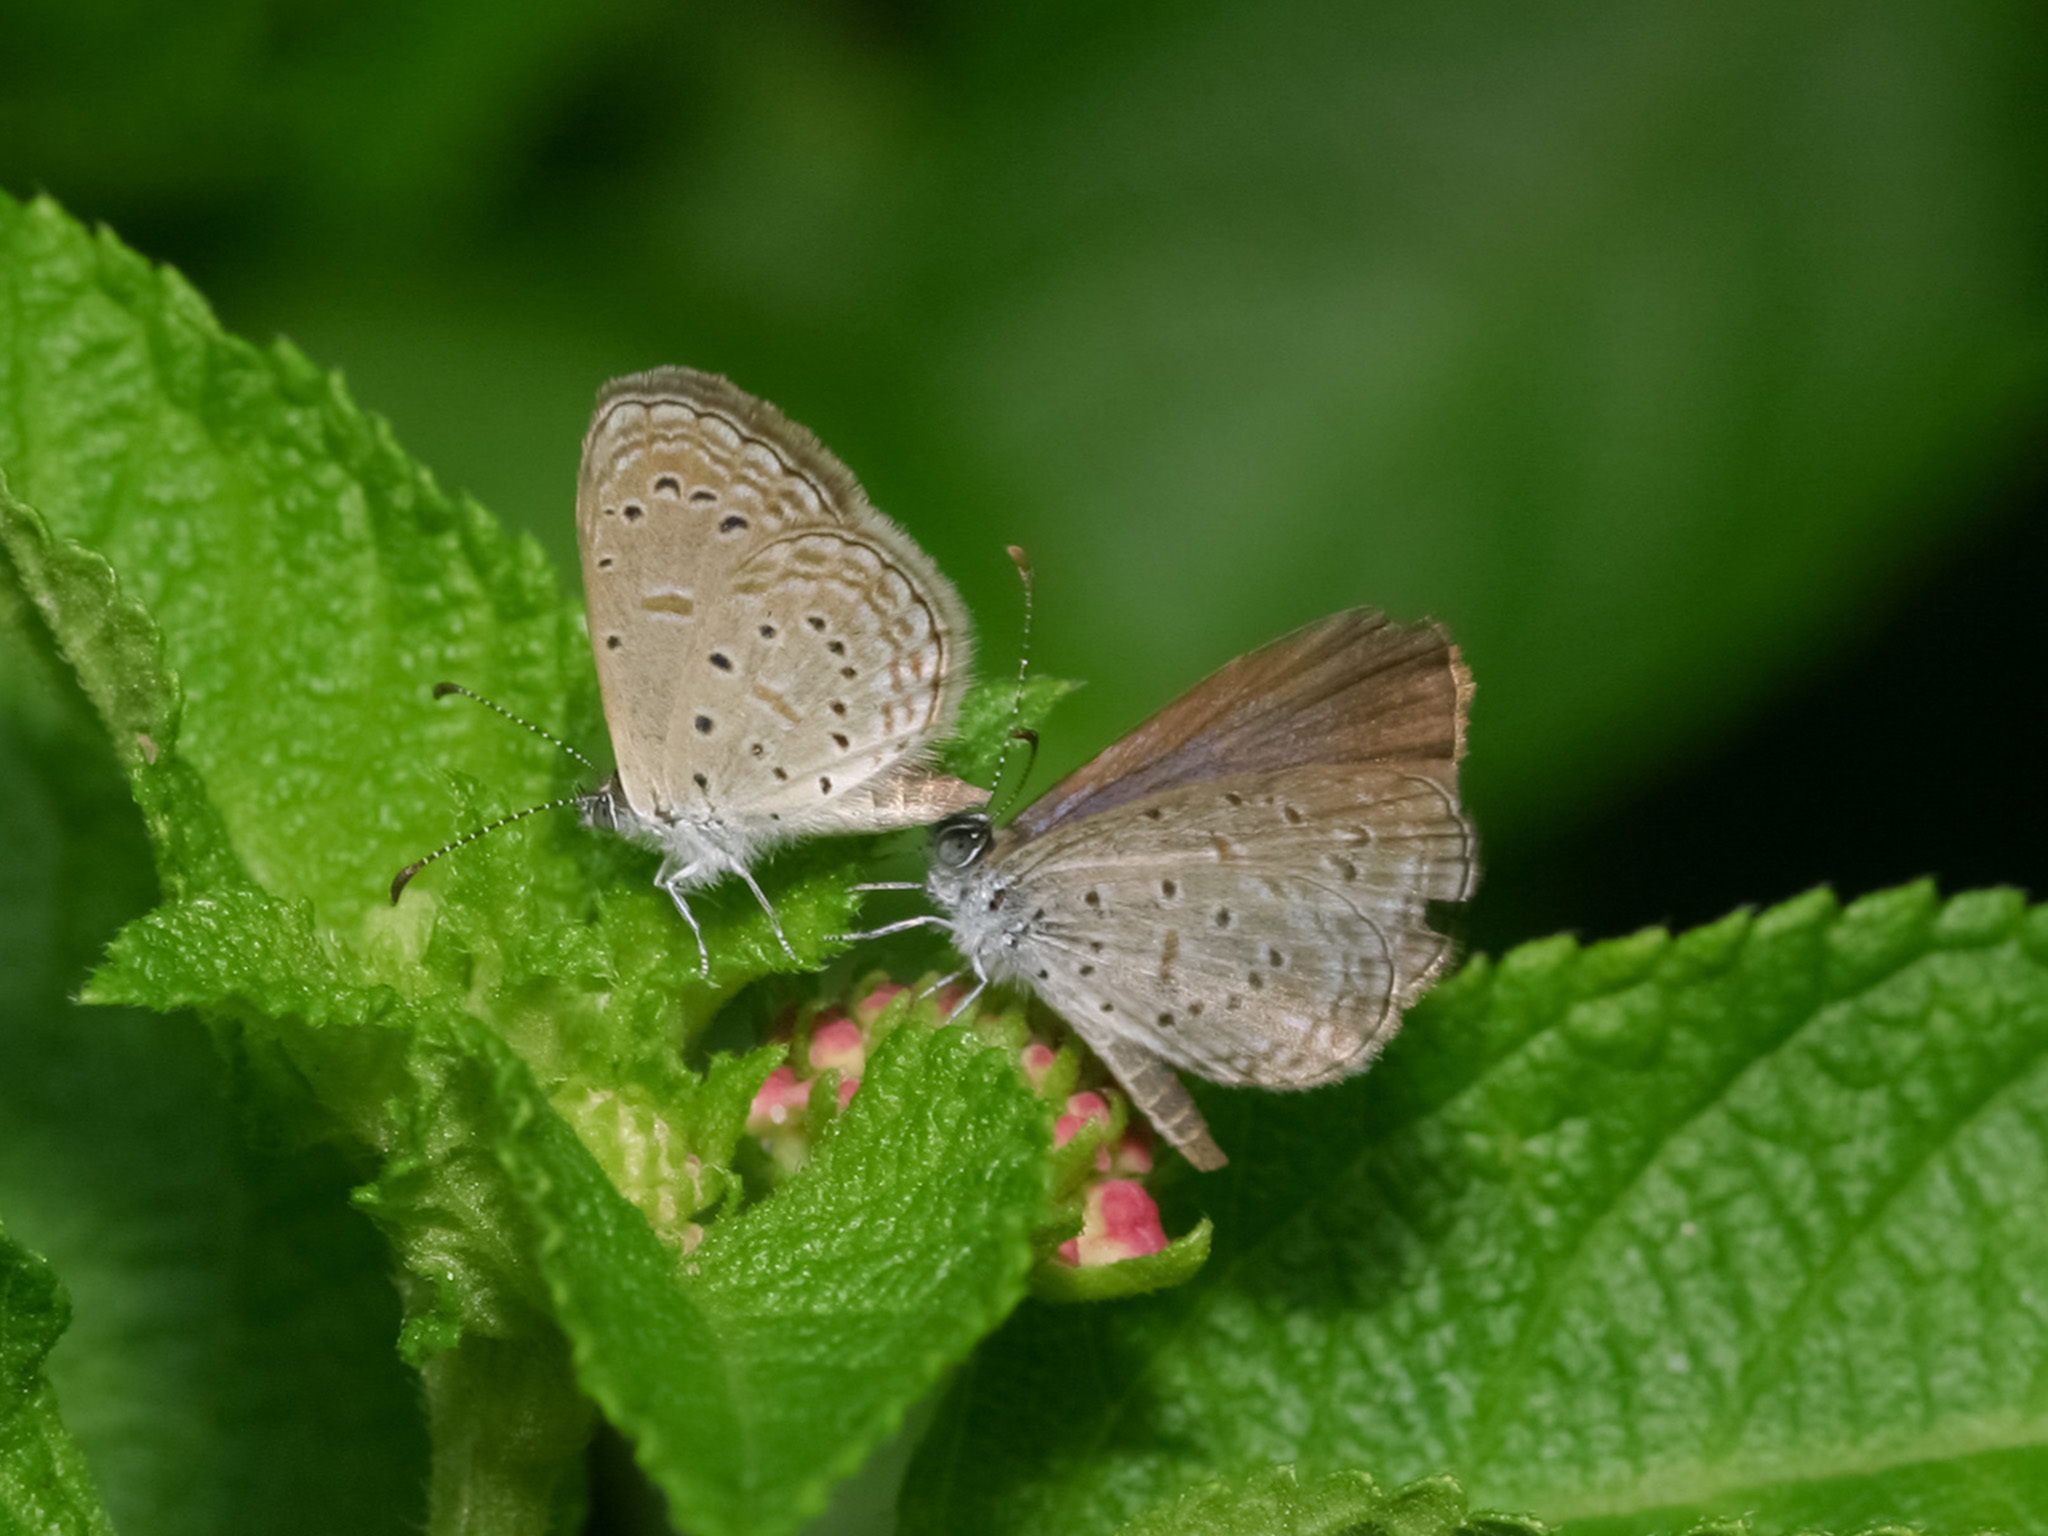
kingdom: Animalia
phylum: Arthropoda
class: Insecta
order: Lepidoptera
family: Lycaenidae
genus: Zizula
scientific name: Zizula hylax
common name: Gaika blue
